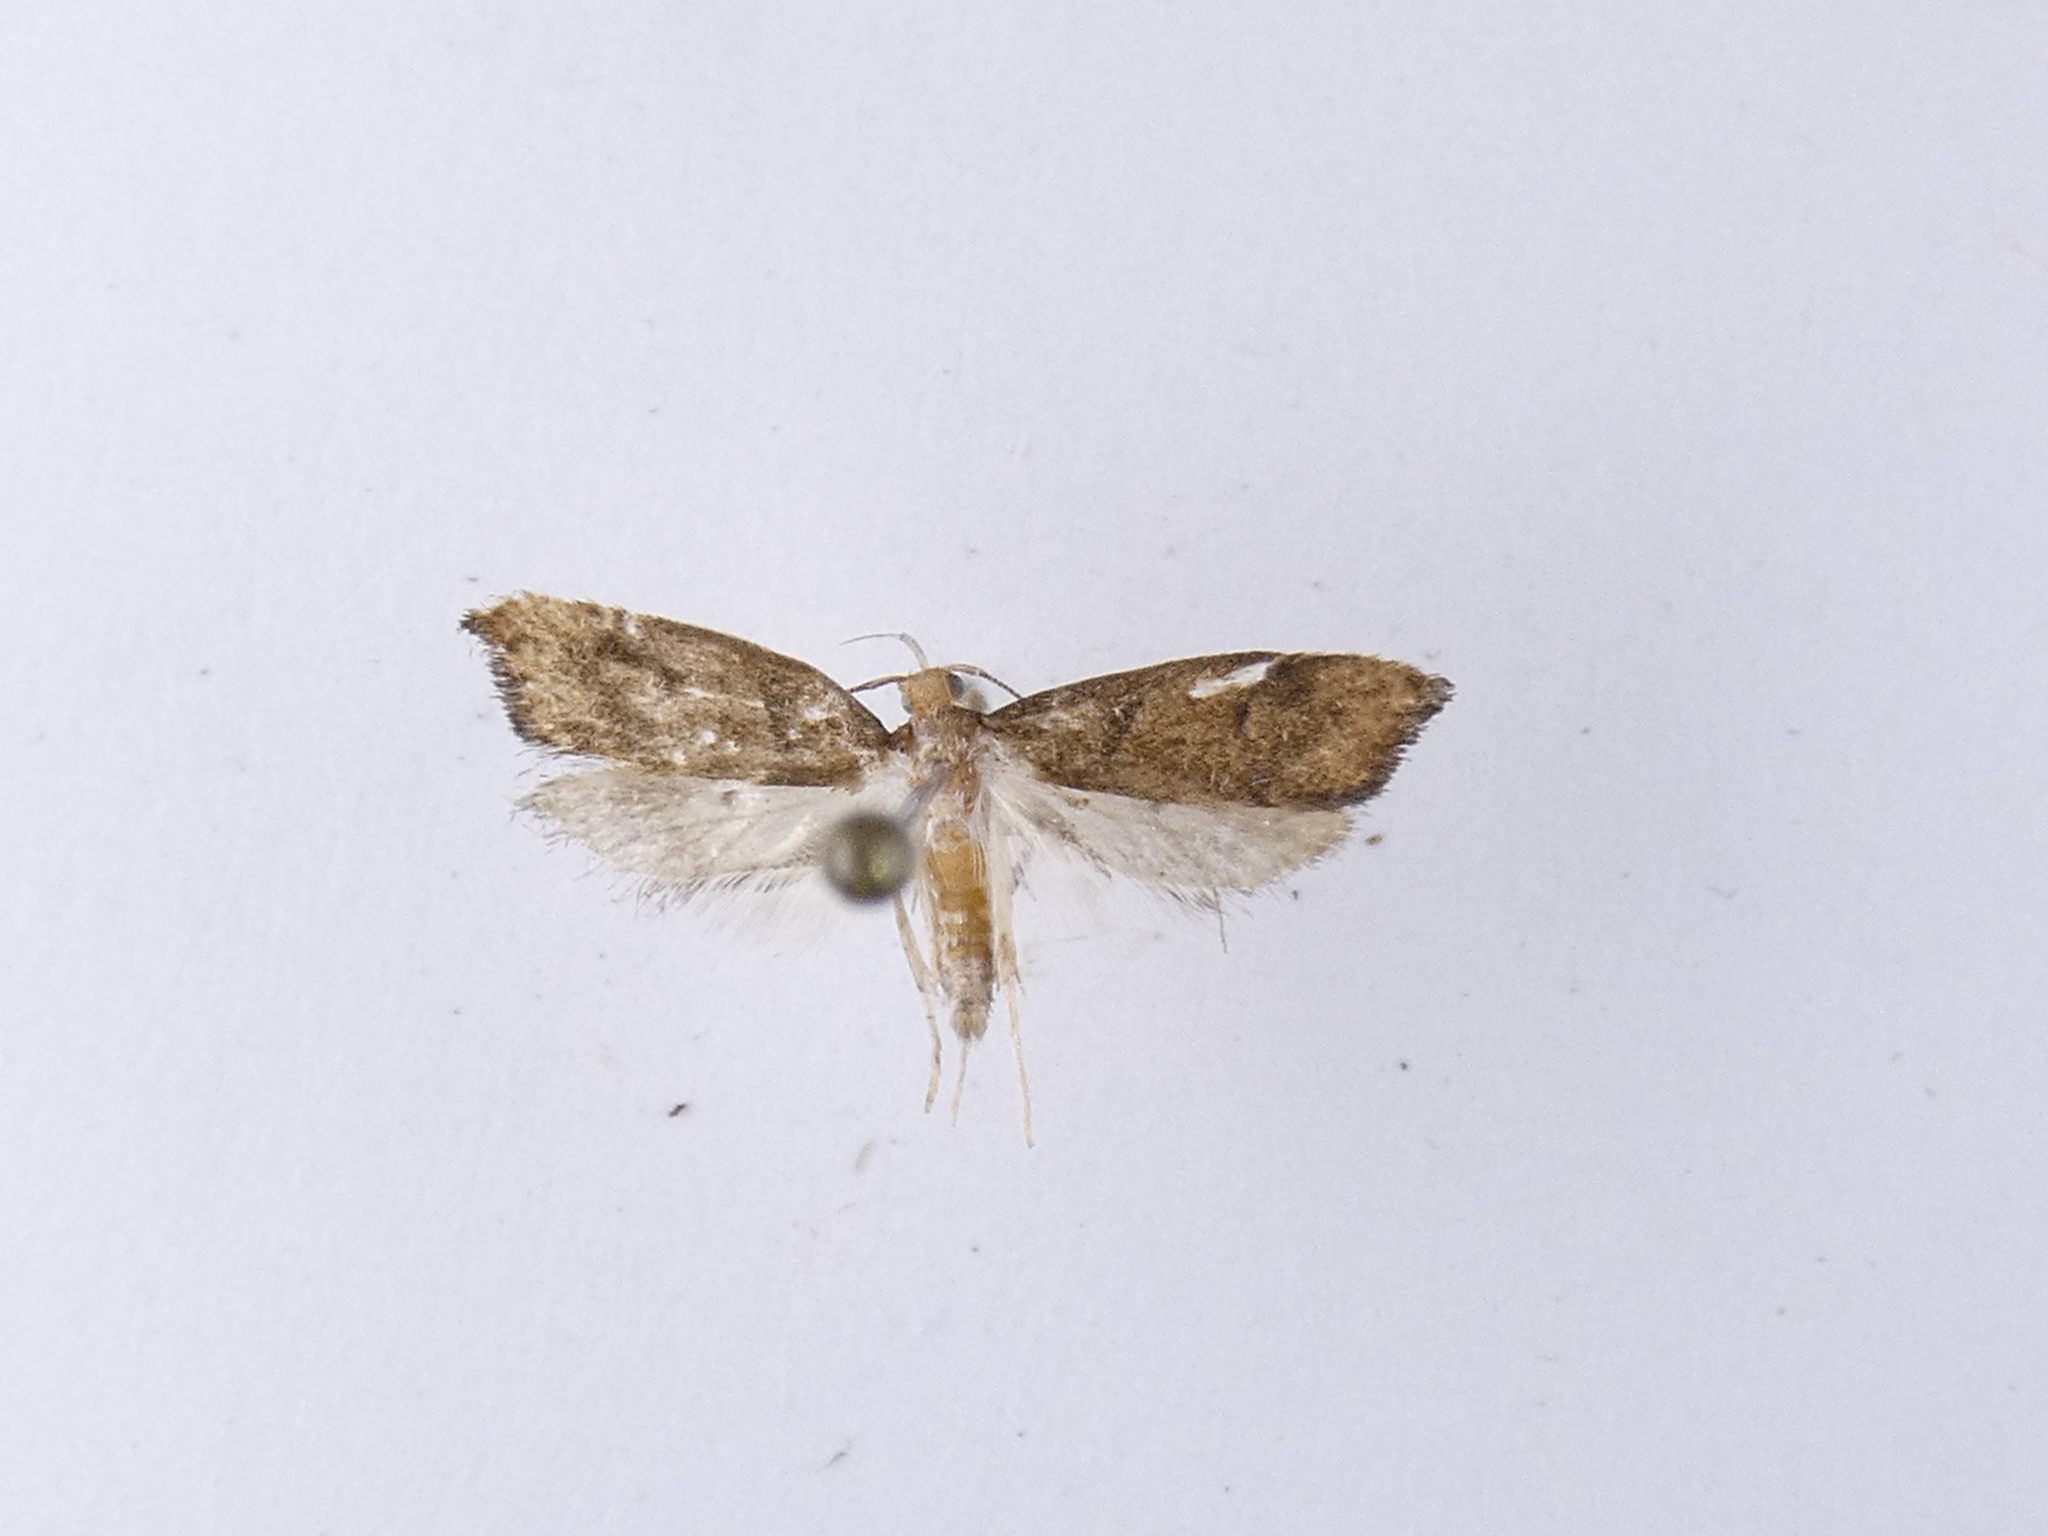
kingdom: Animalia
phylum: Arthropoda
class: Insecta
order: Lepidoptera
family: Oecophoridae
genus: Gymnobathra
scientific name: Gymnobathra hamatella
